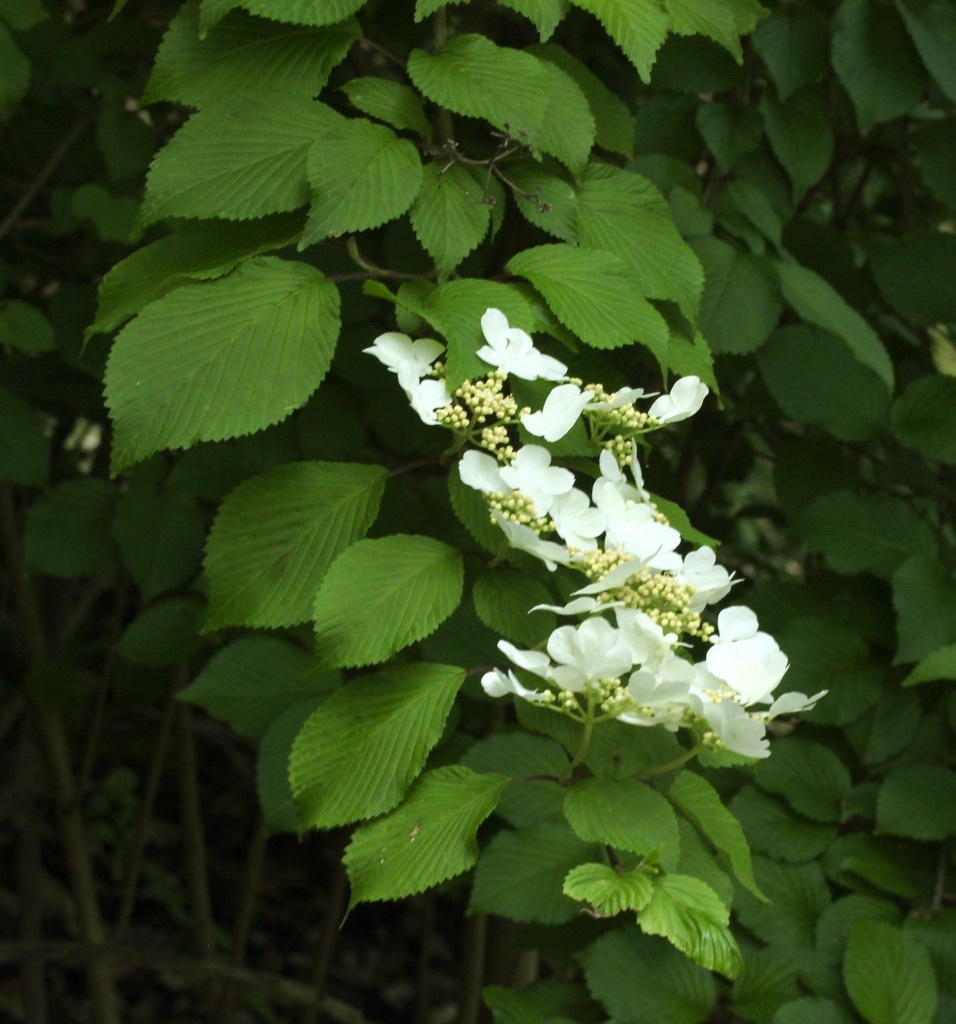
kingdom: Plantae
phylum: Tracheophyta
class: Magnoliopsida
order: Dipsacales
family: Viburnaceae
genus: Viburnum
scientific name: Viburnum plicatum
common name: Japanese snowball
